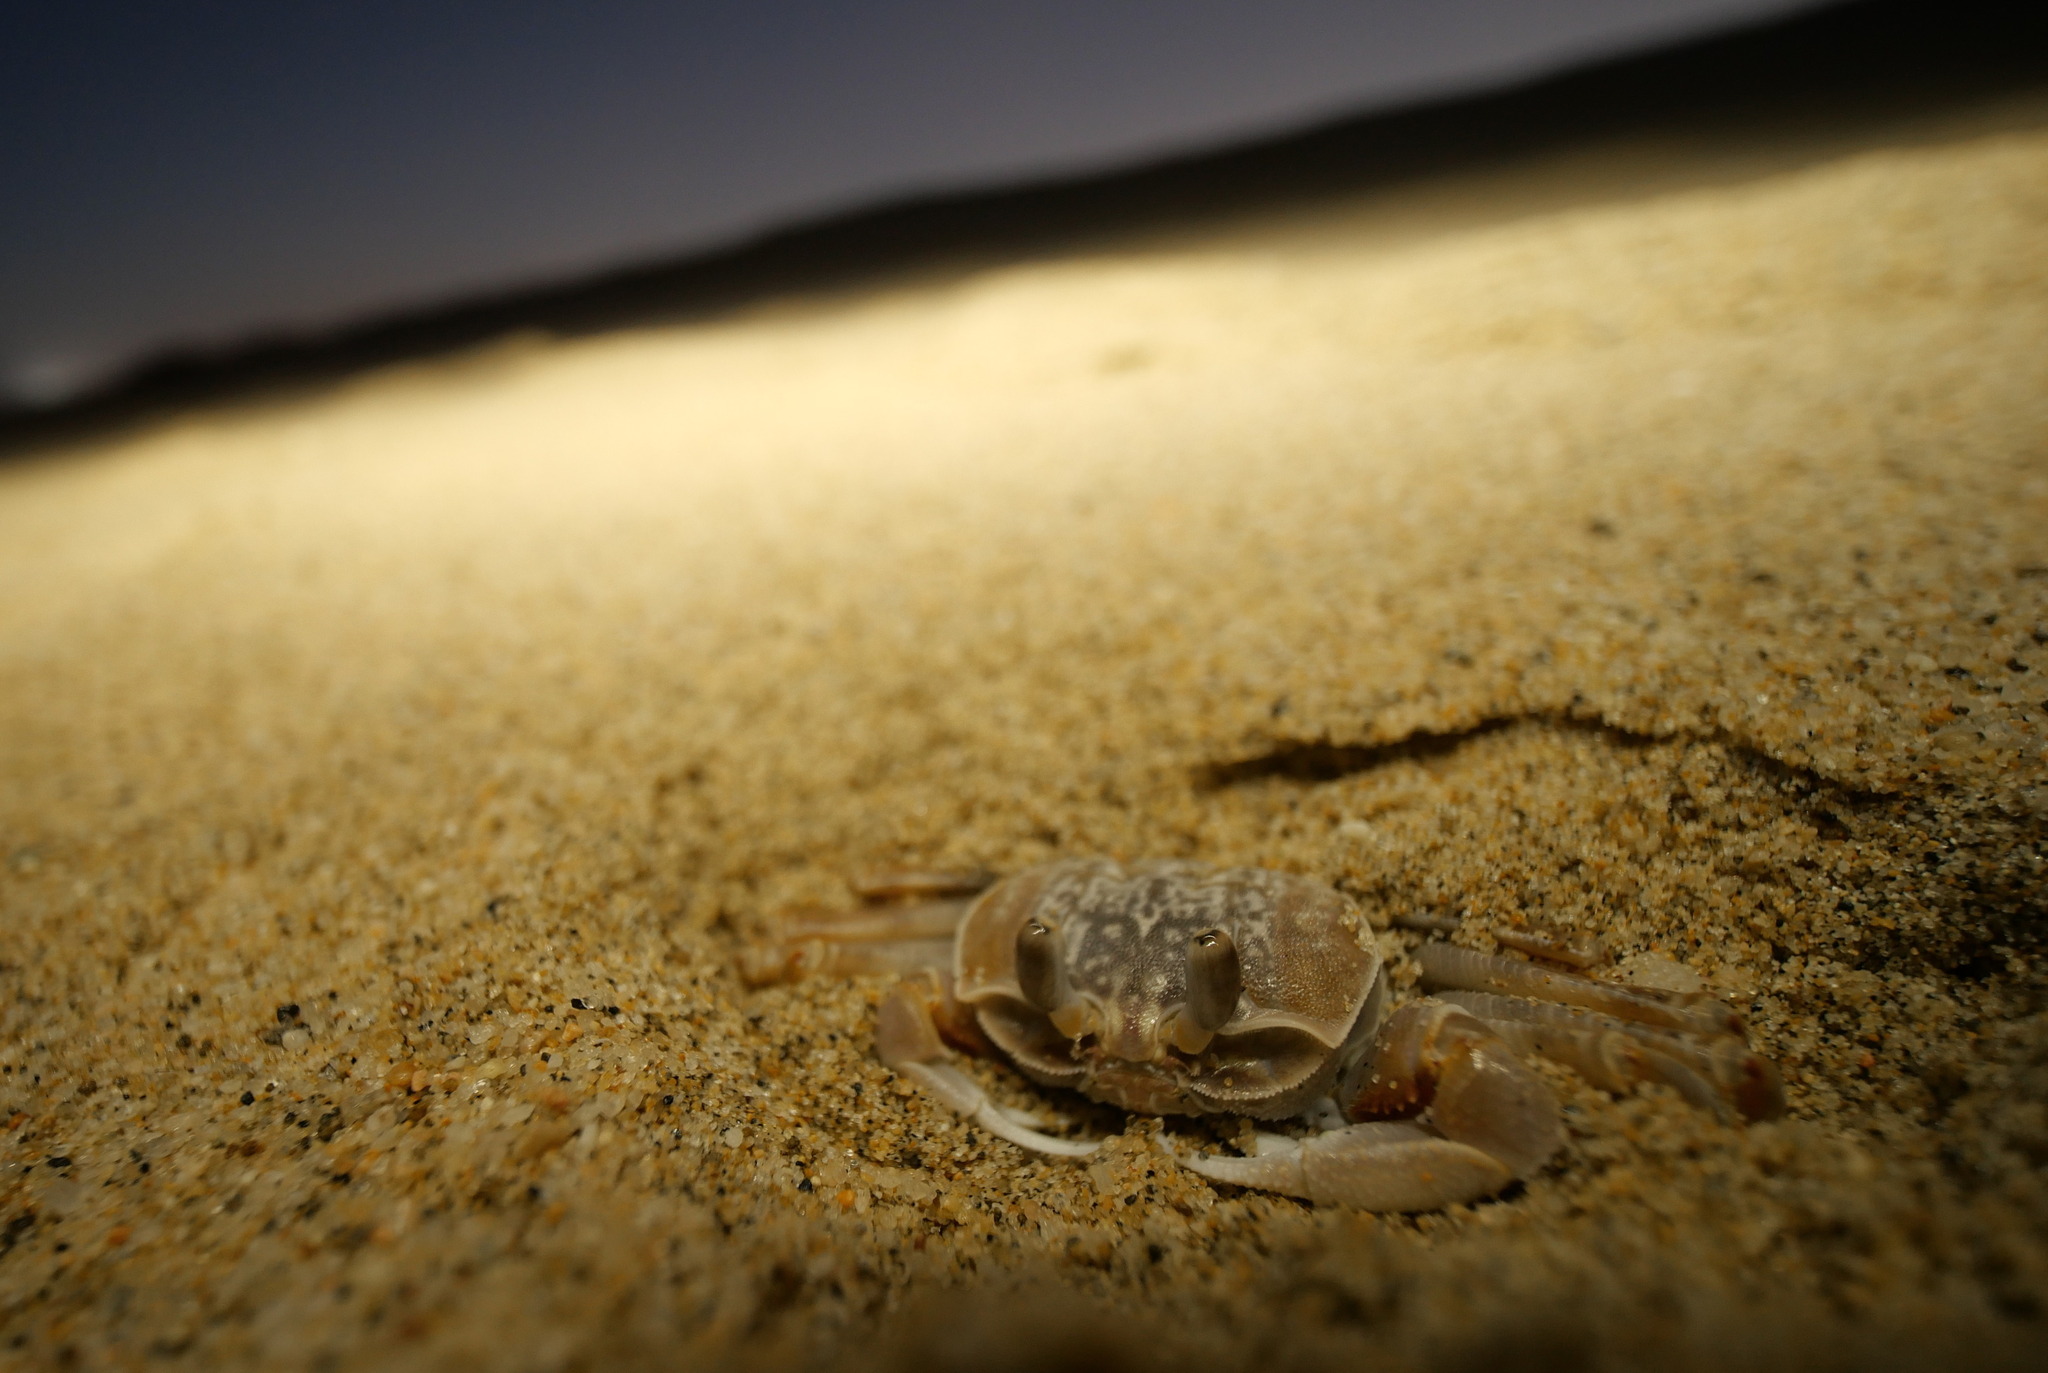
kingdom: Animalia
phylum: Arthropoda
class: Malacostraca
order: Decapoda
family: Ocypodidae
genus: Ocypode
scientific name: Ocypode occidentalis
